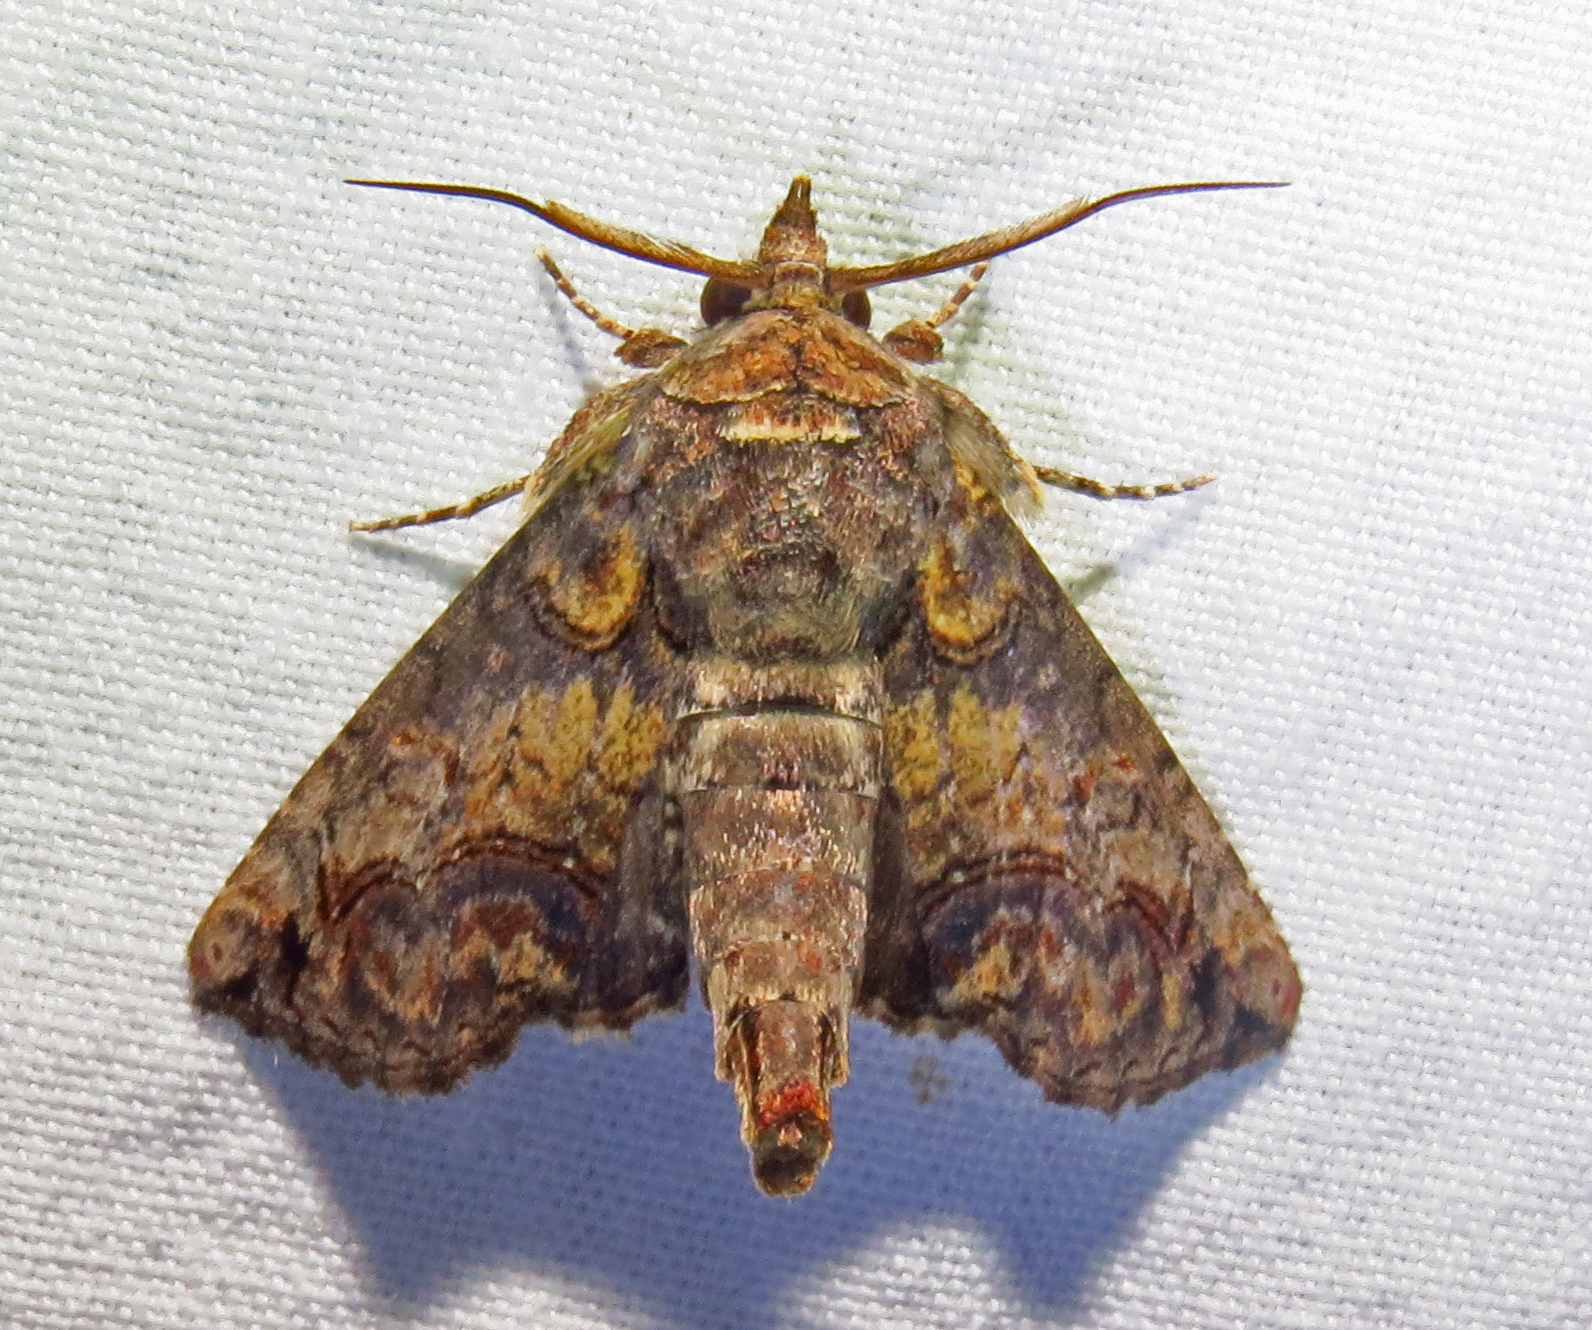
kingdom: Animalia
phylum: Arthropoda
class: Insecta
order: Lepidoptera
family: Euteliidae
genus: Paectes
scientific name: Paectes abrostoloides
